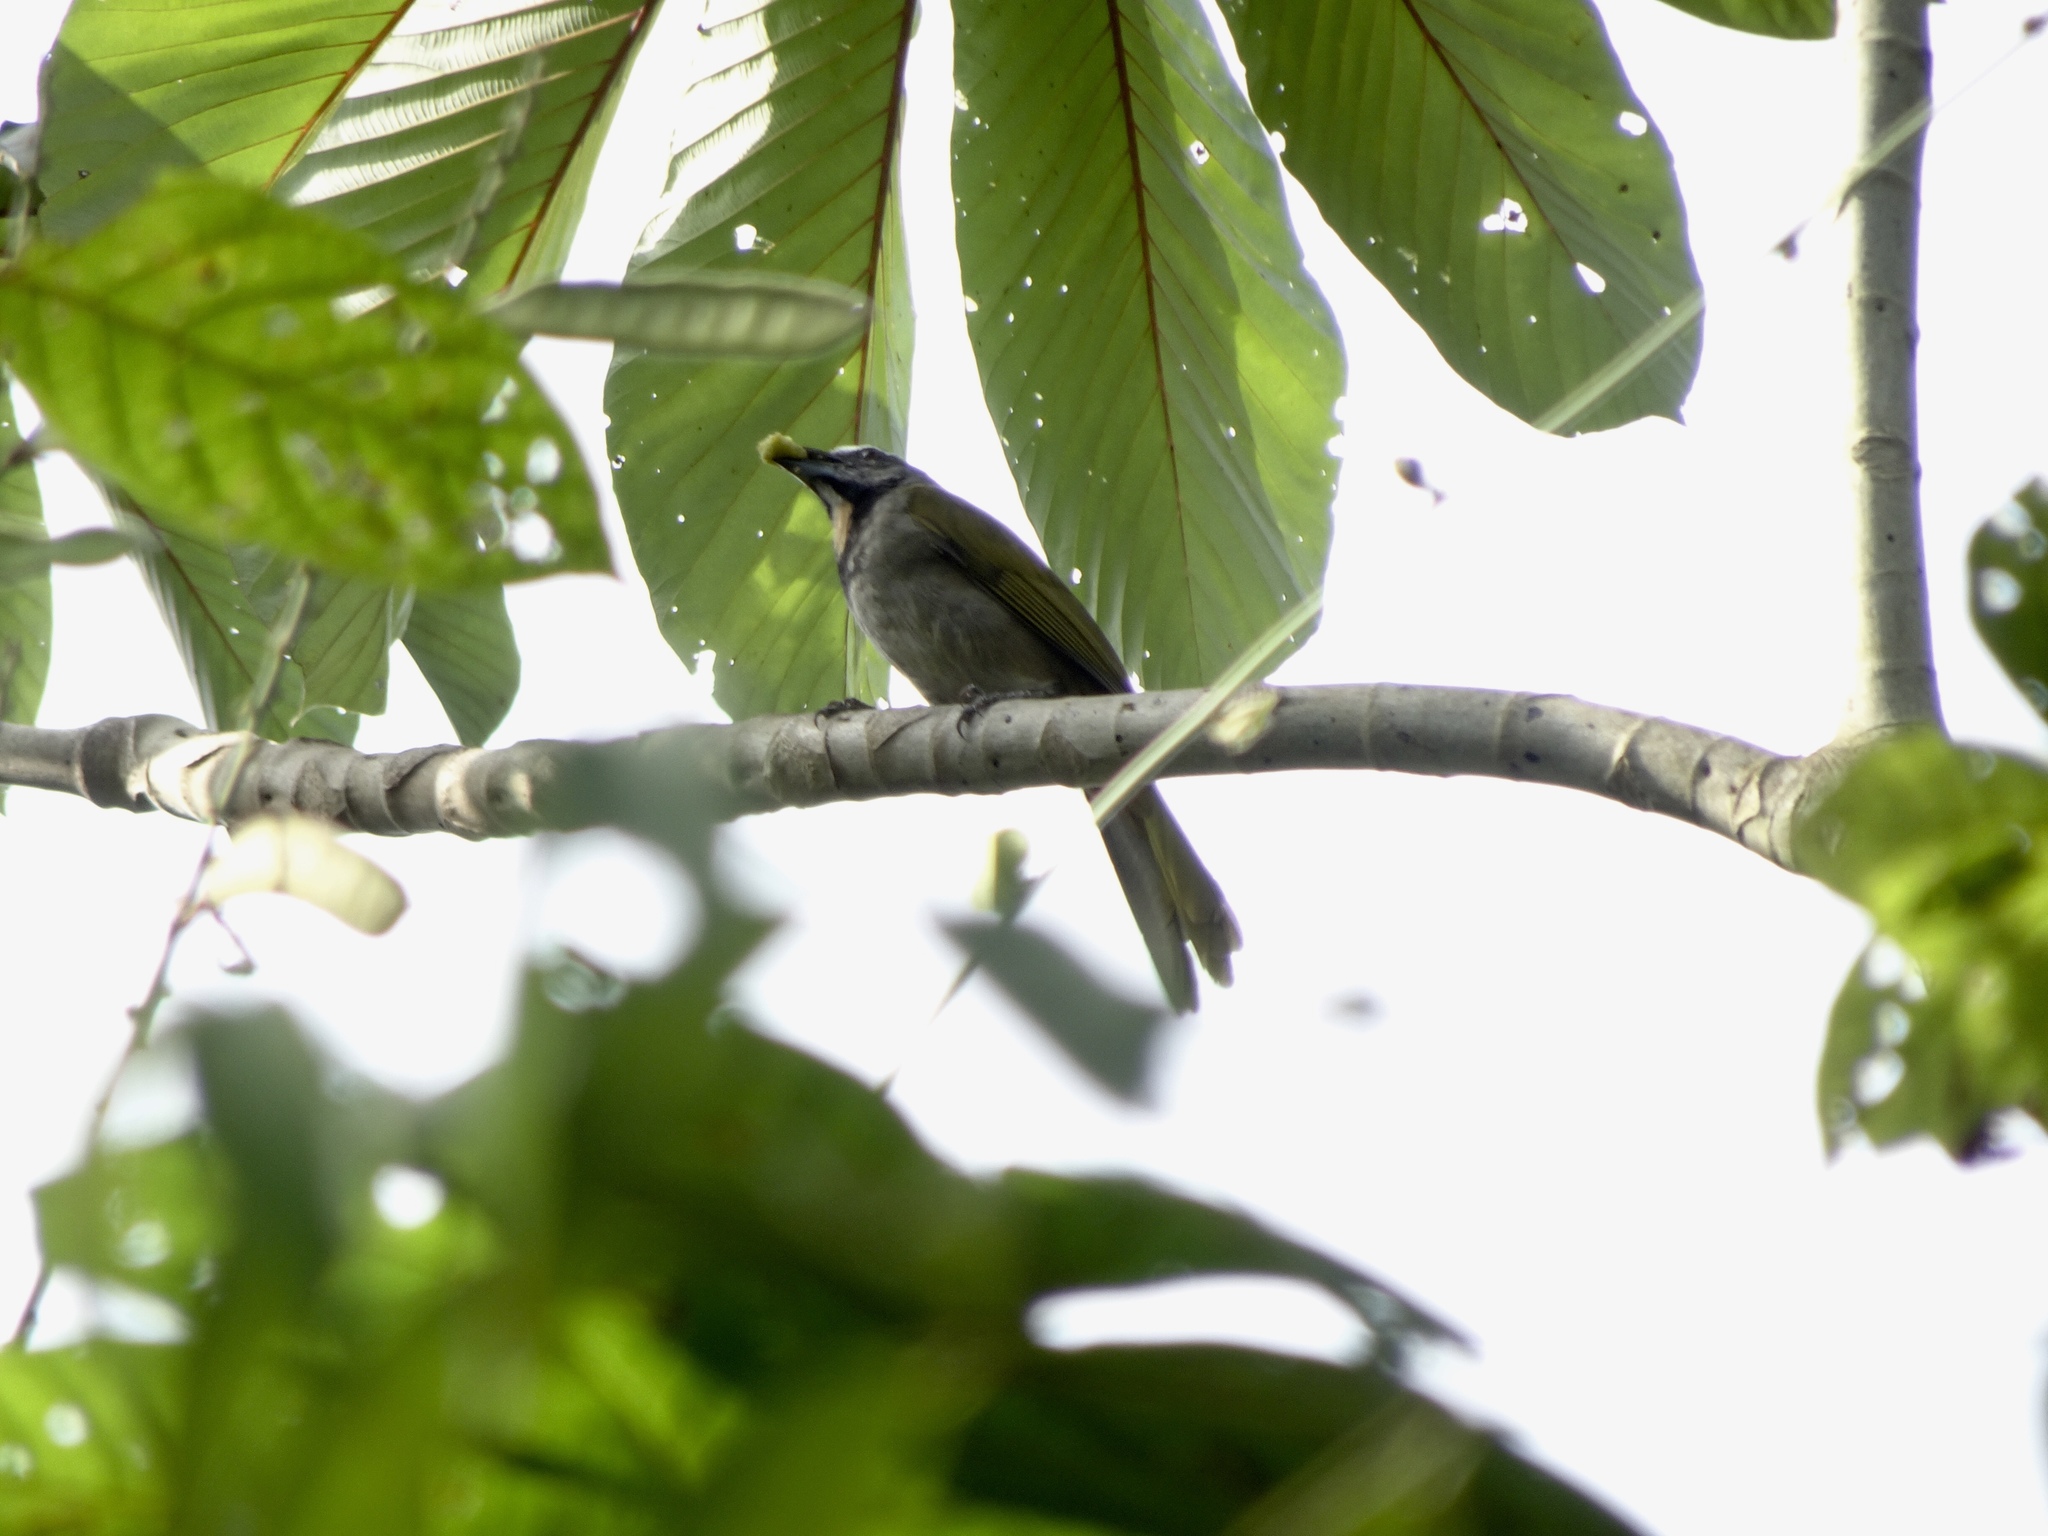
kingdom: Animalia
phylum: Chordata
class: Aves
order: Passeriformes
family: Thraupidae
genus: Saltator
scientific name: Saltator maximus
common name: Buff-throated saltator
